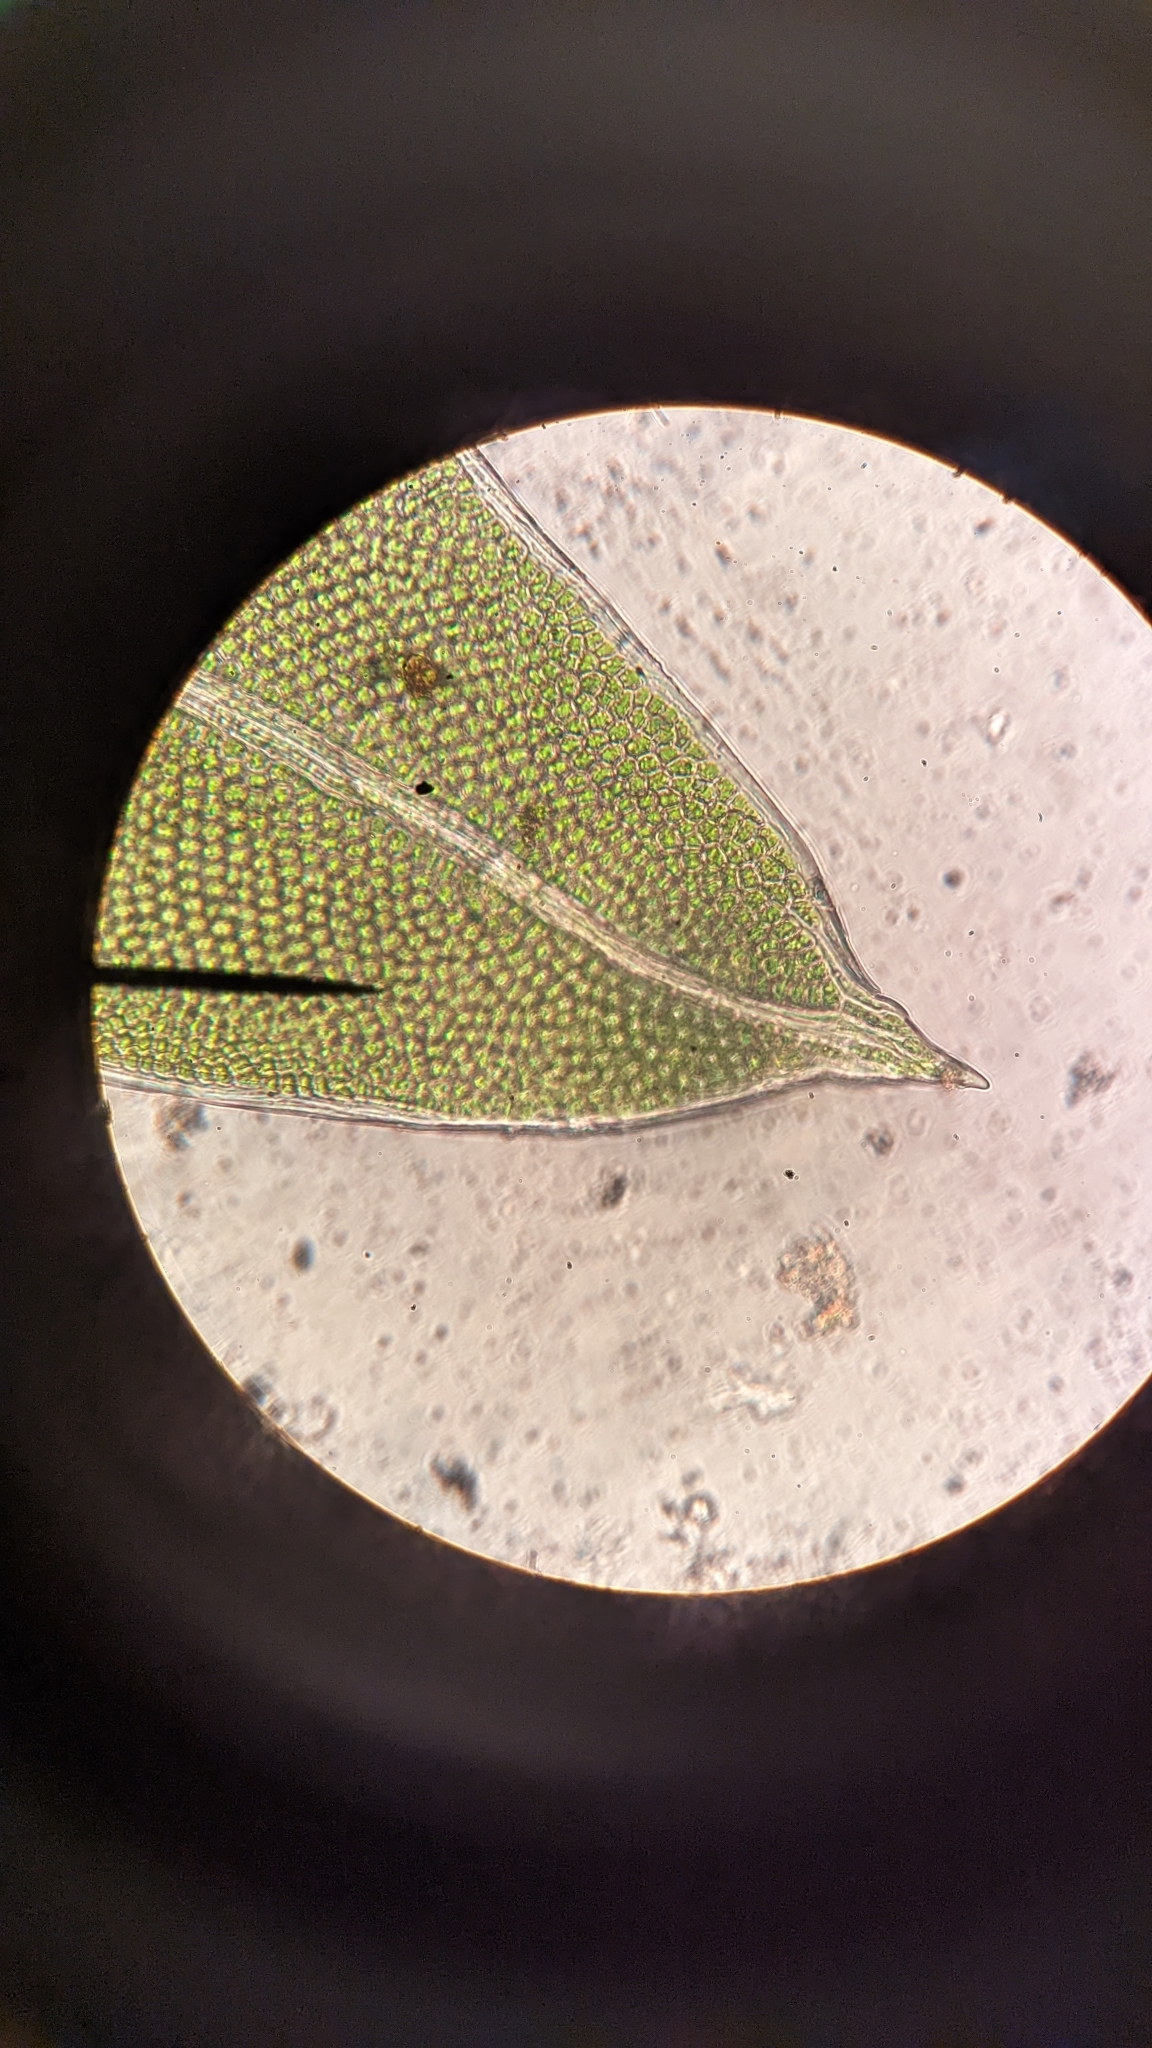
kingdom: Plantae
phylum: Bryophyta
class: Bryopsida
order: Dicranales
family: Fissidentaceae
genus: Fissidens
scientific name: Fissidens bryoides
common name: Lesser pocket moss
